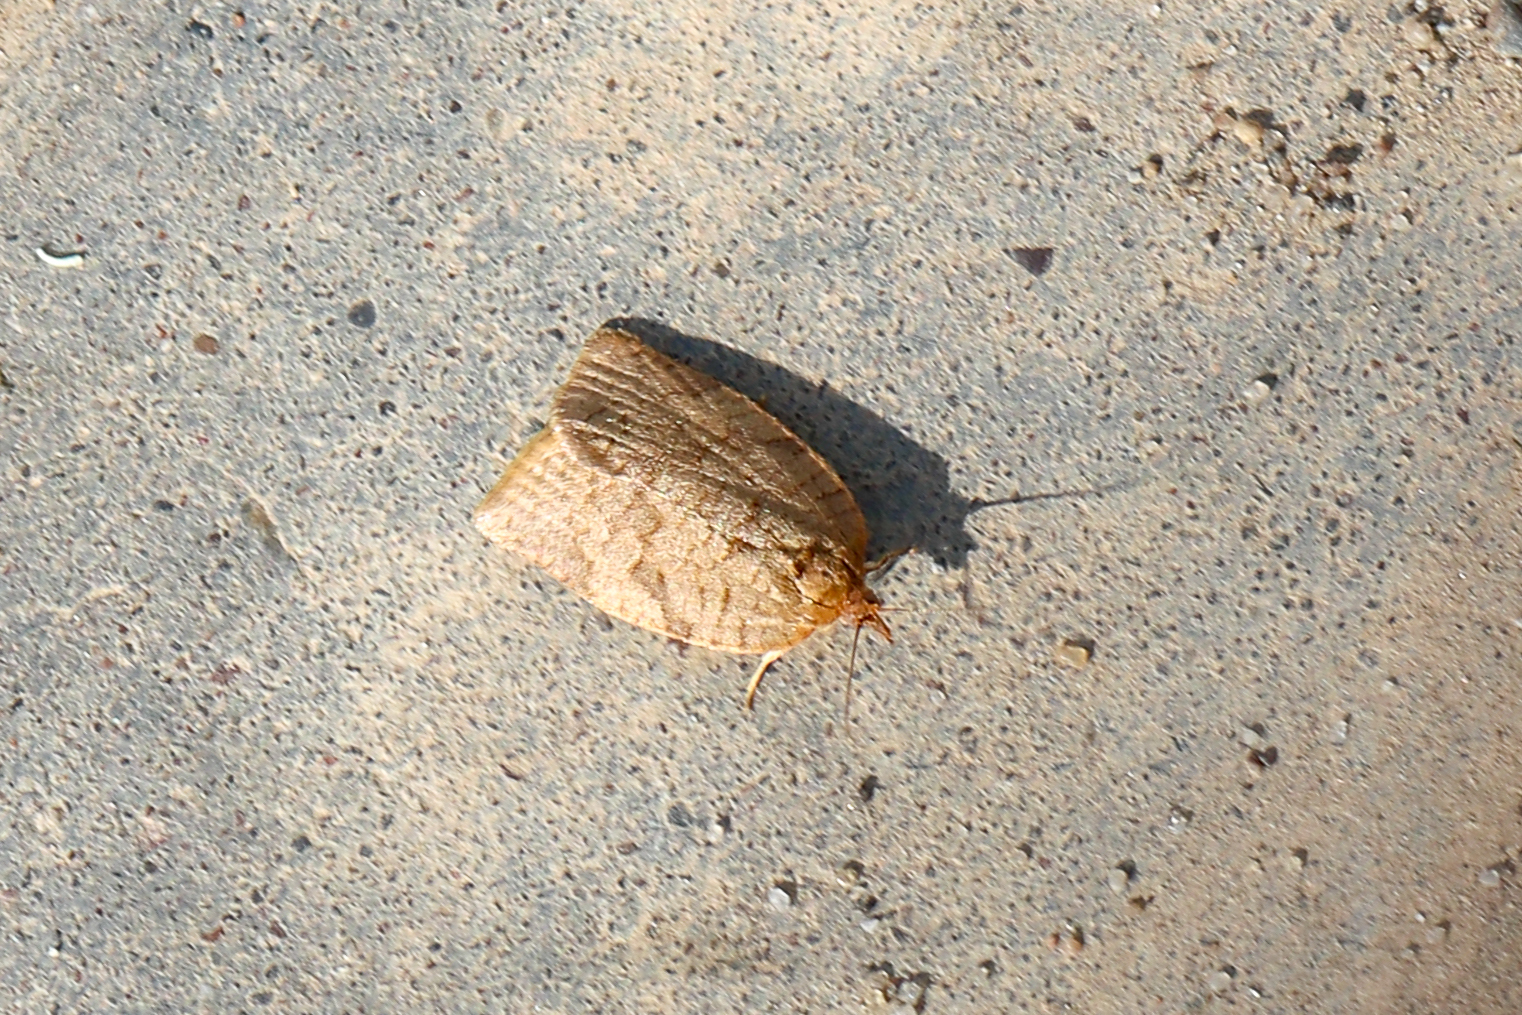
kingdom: Animalia
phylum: Arthropoda
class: Insecta
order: Lepidoptera
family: Tortricidae
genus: Adoxophyes
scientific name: Adoxophyes orana
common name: Summer fruit tortrix
